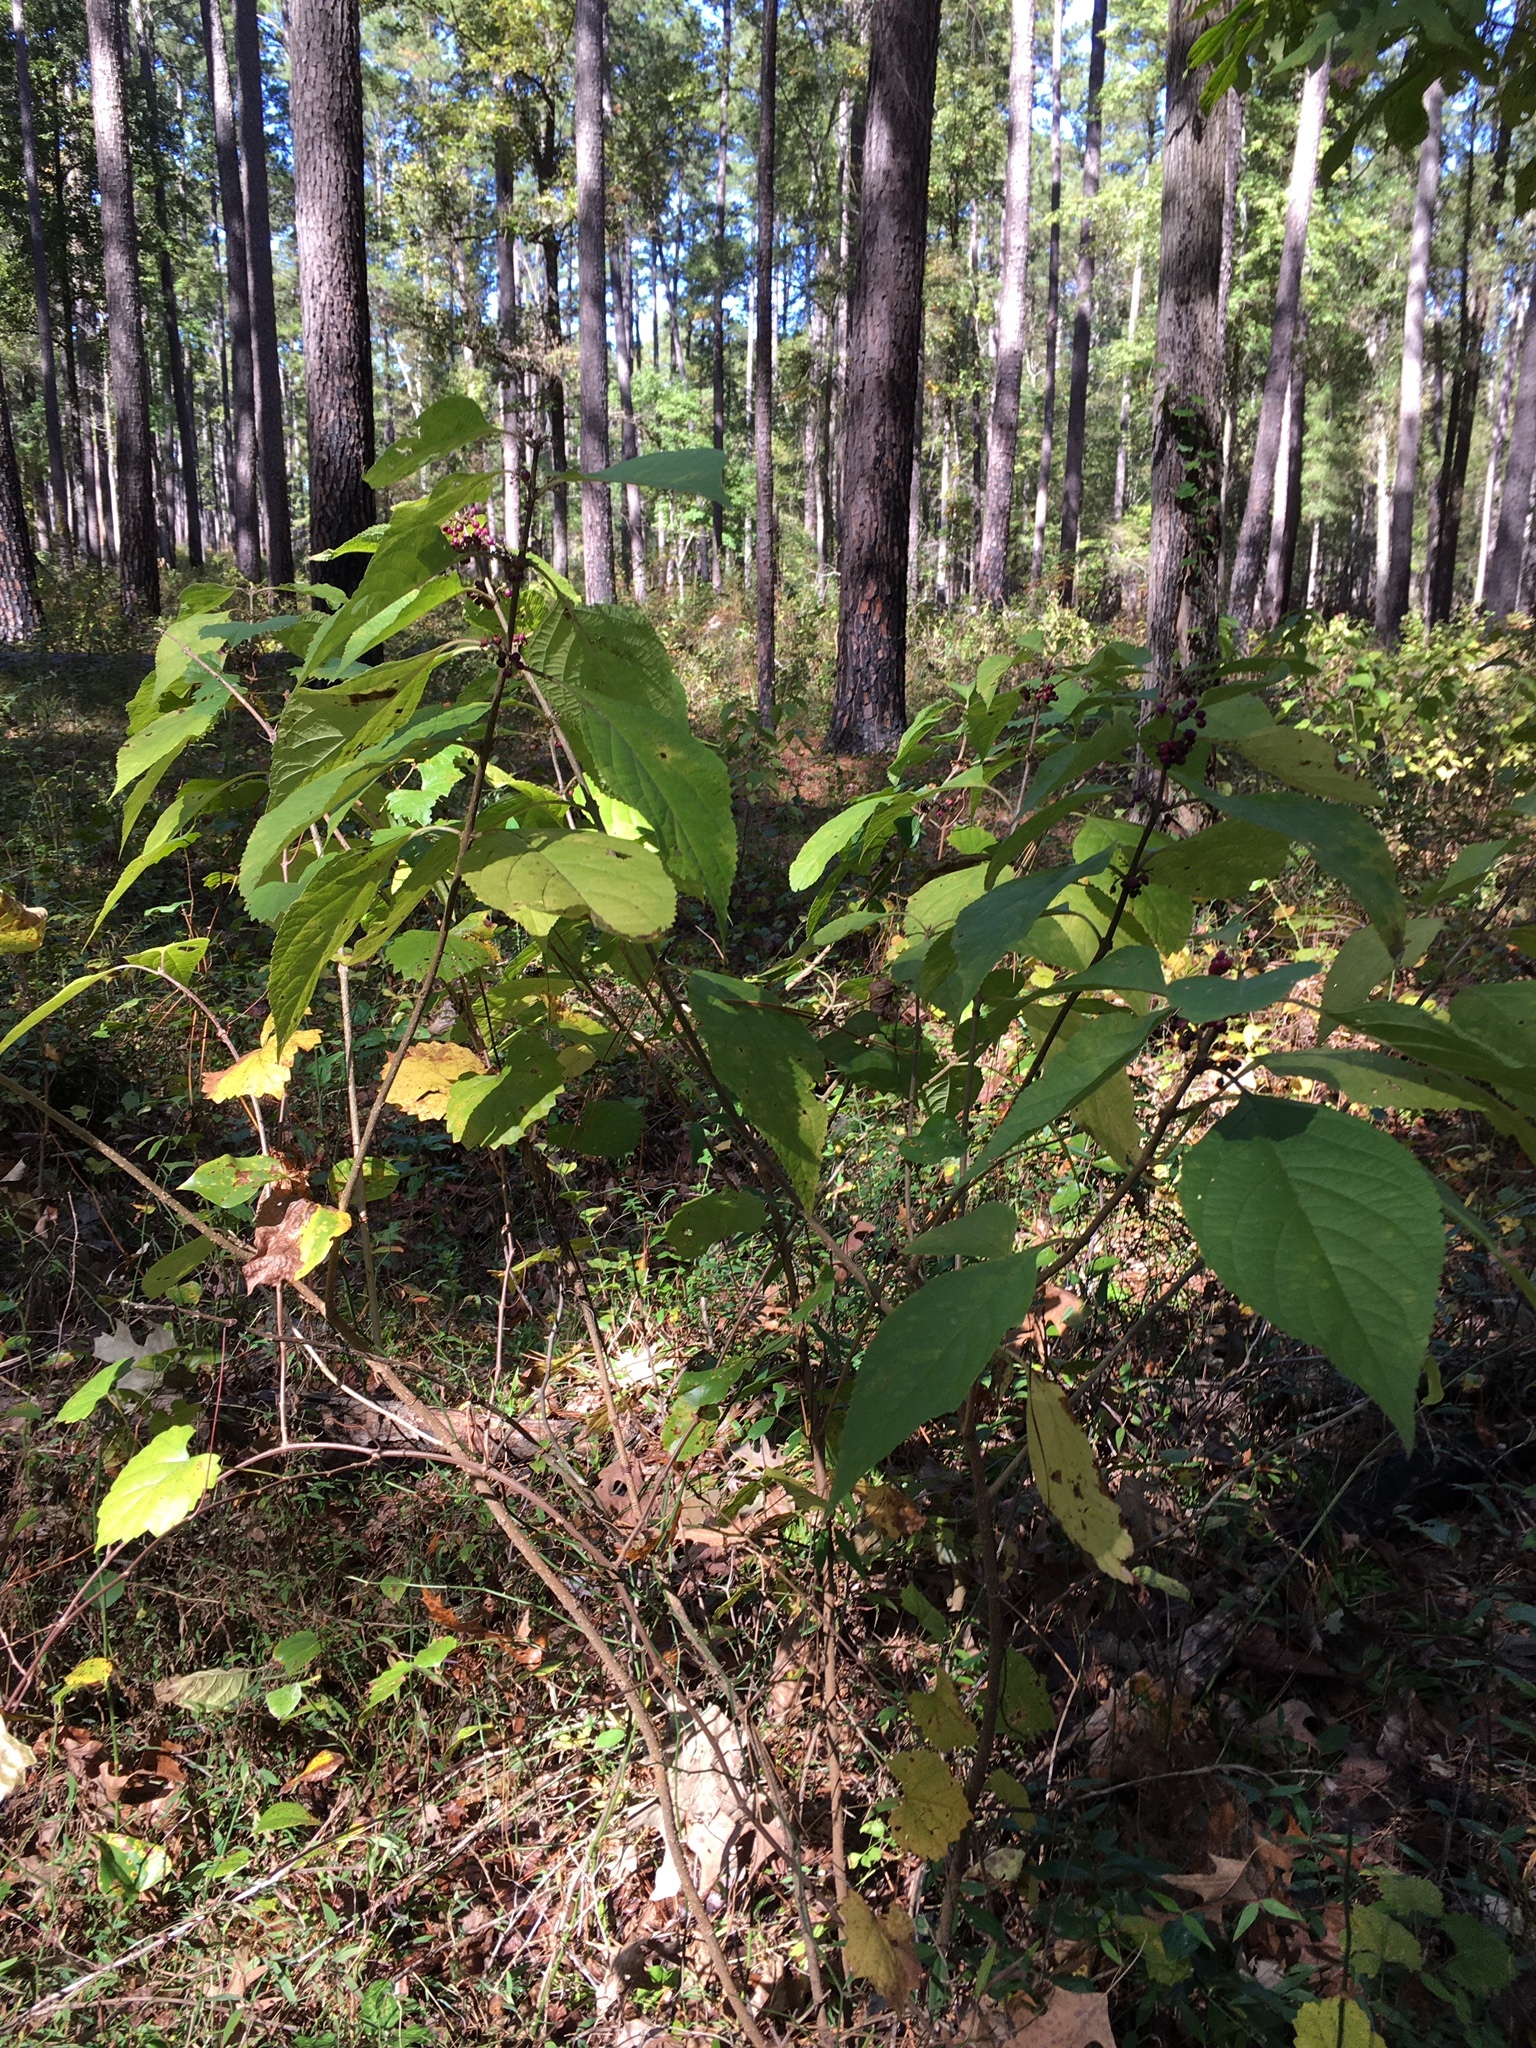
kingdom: Plantae
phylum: Tracheophyta
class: Magnoliopsida
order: Lamiales
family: Lamiaceae
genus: Callicarpa
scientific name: Callicarpa americana
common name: American beautyberry
